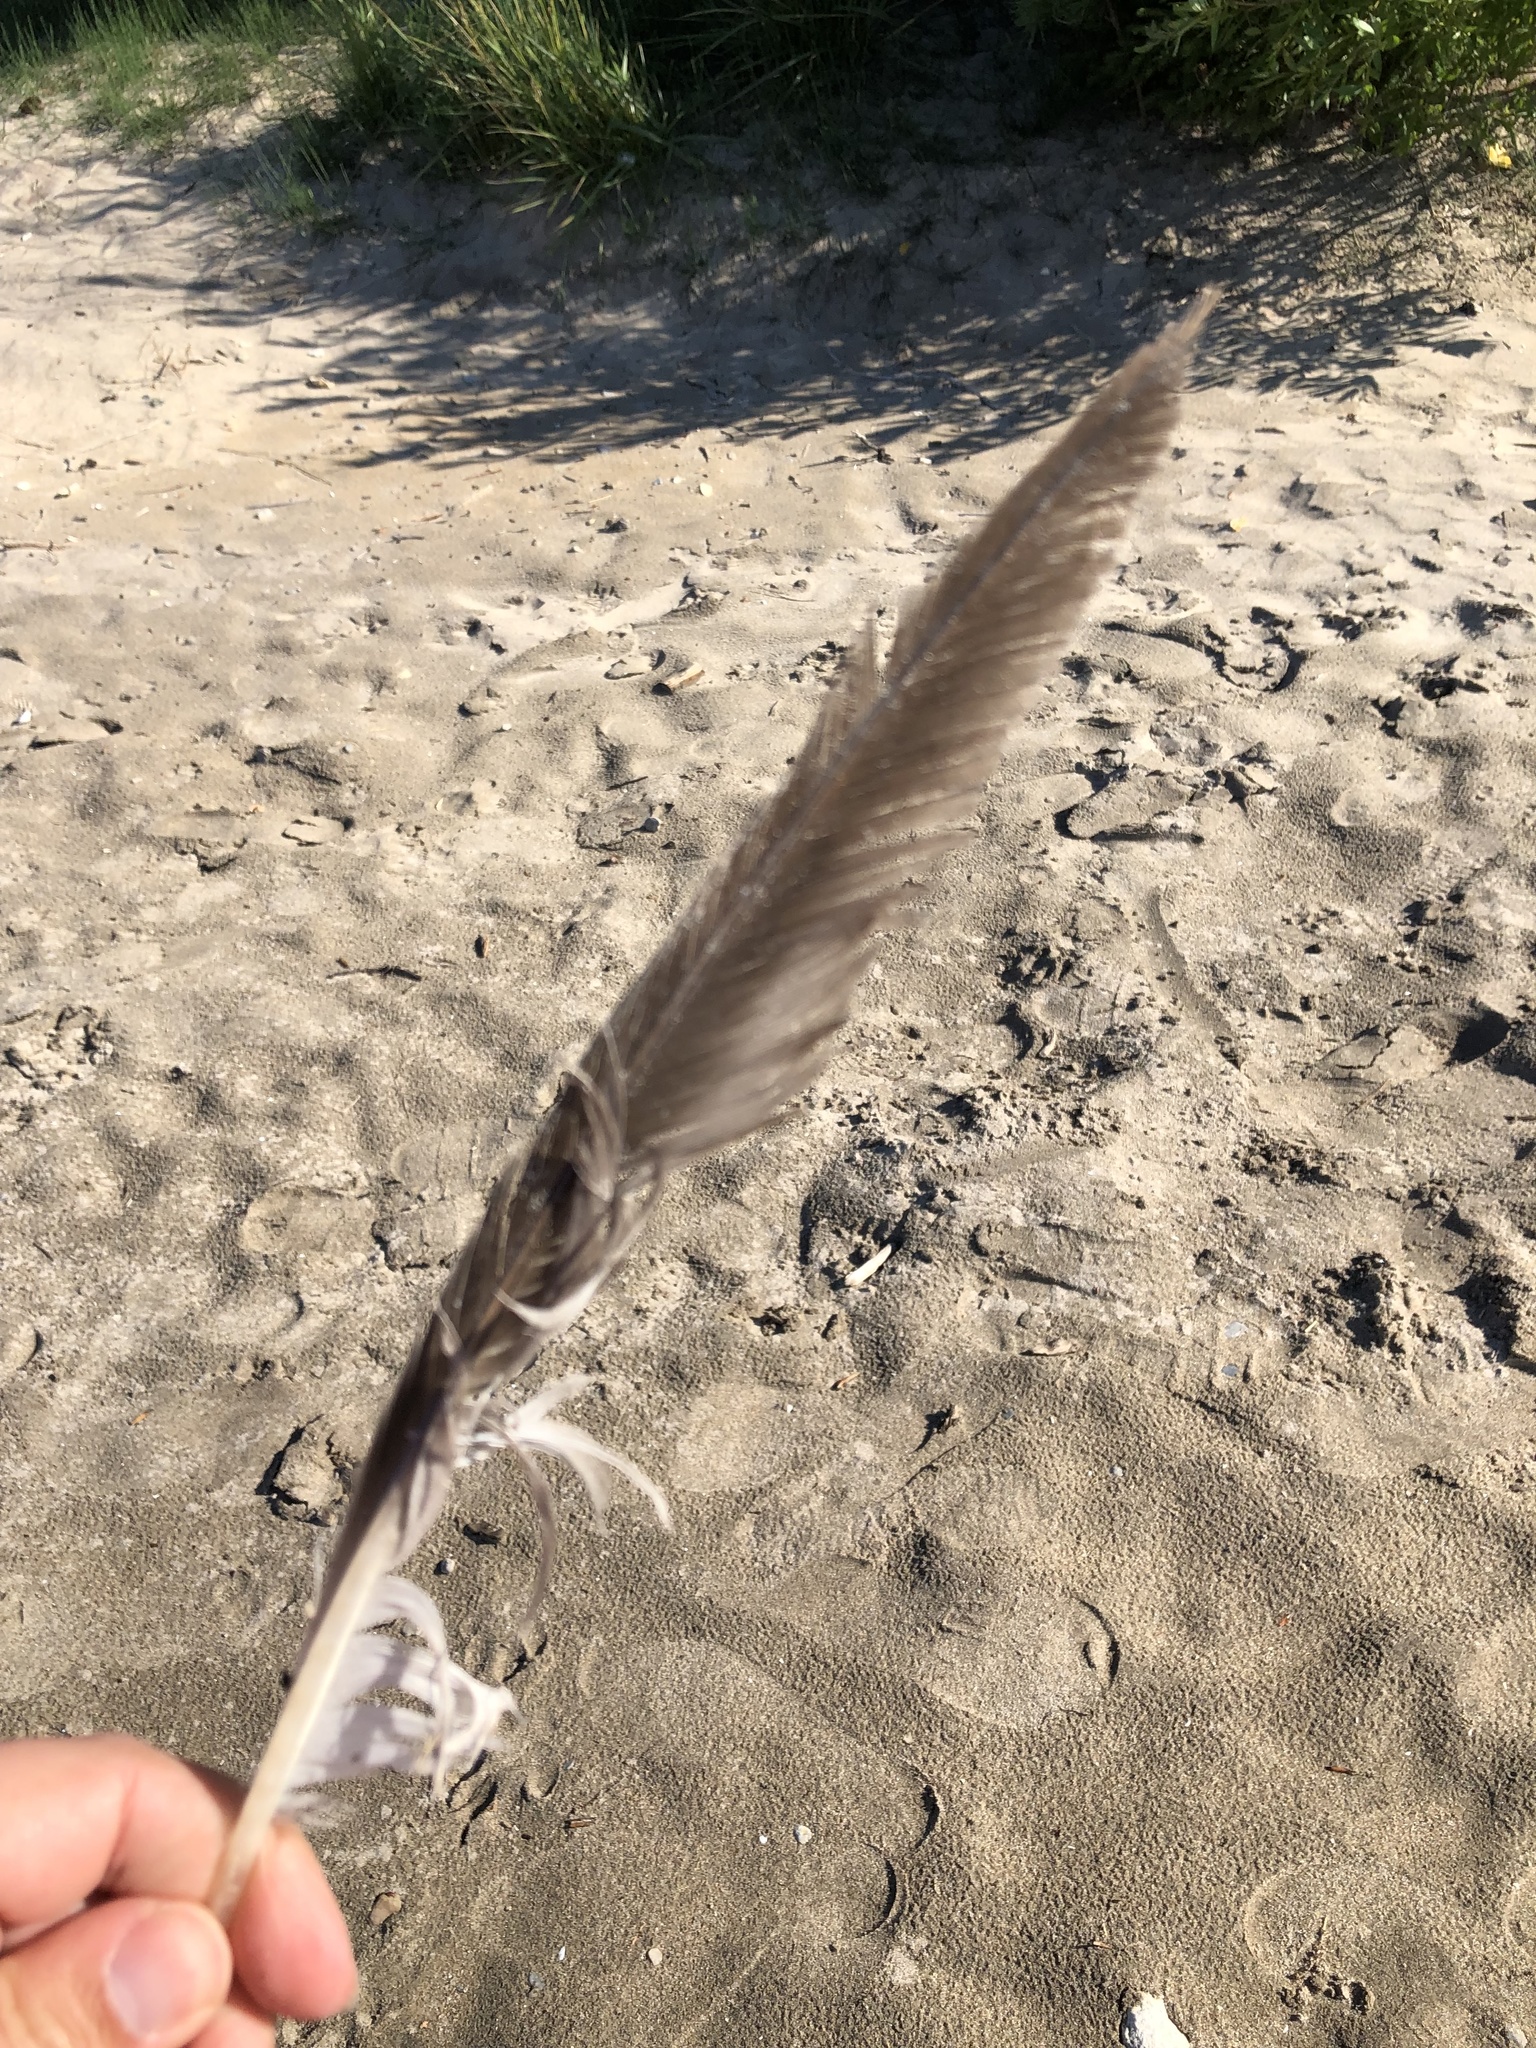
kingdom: Animalia
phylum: Chordata
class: Aves
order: Charadriiformes
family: Laridae
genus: Larus
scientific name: Larus argentatus
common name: Herring gull
